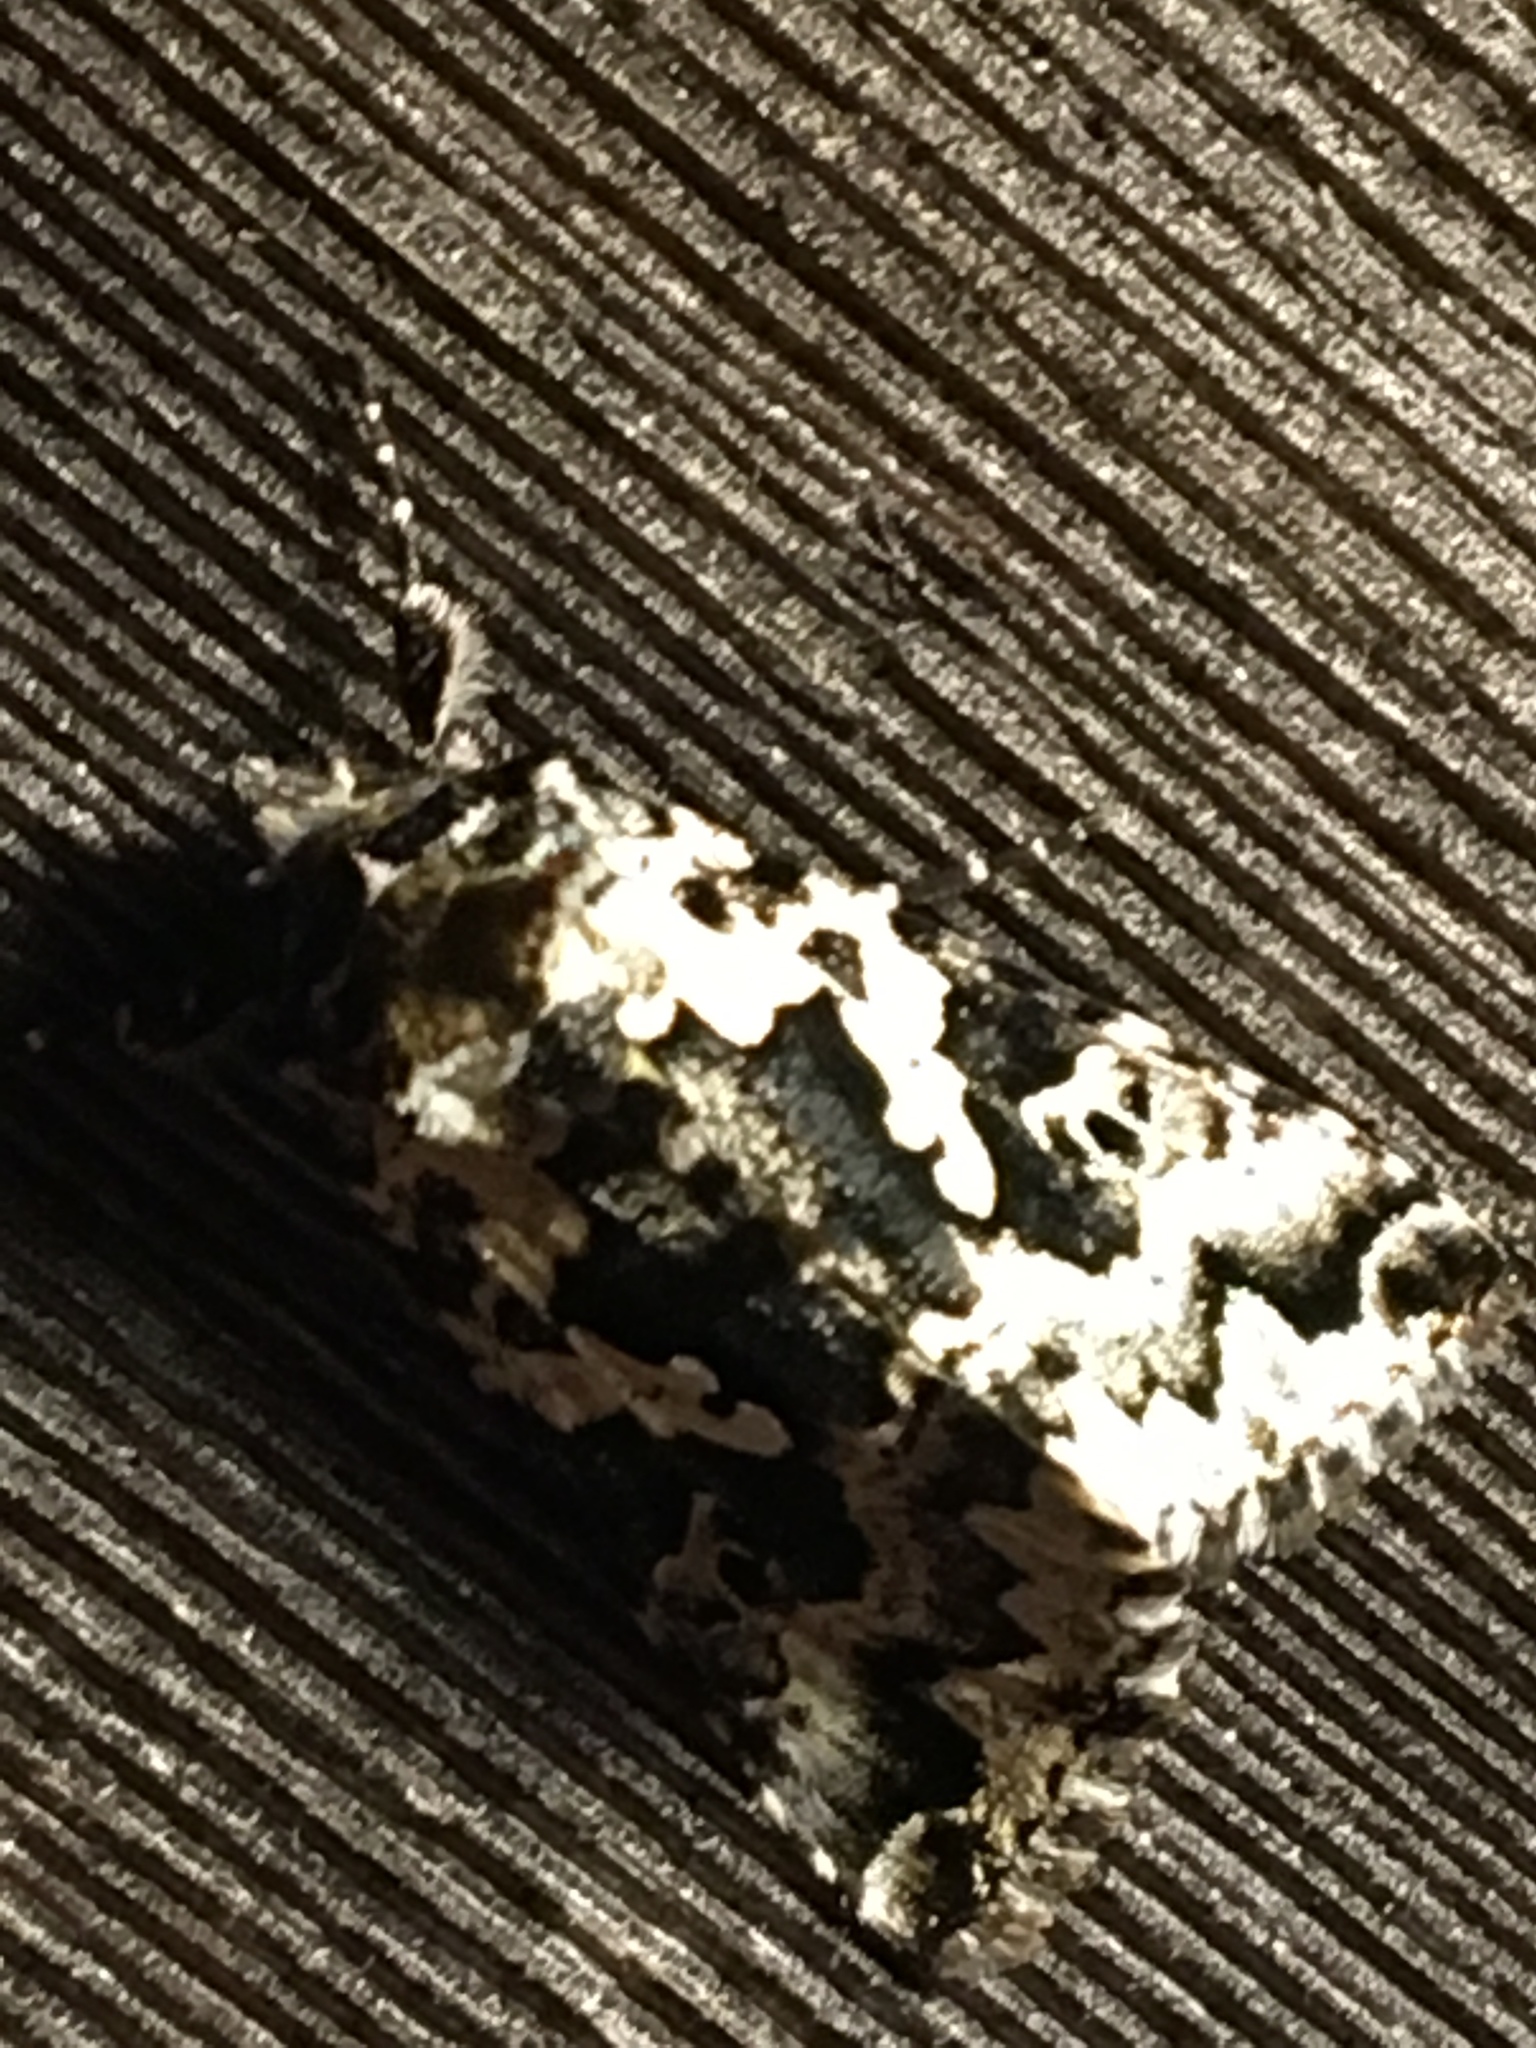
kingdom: Animalia
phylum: Arthropoda
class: Insecta
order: Lepidoptera
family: Noctuidae
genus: Syngrapha
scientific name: Syngrapha rectangula
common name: Angulated cutworm
